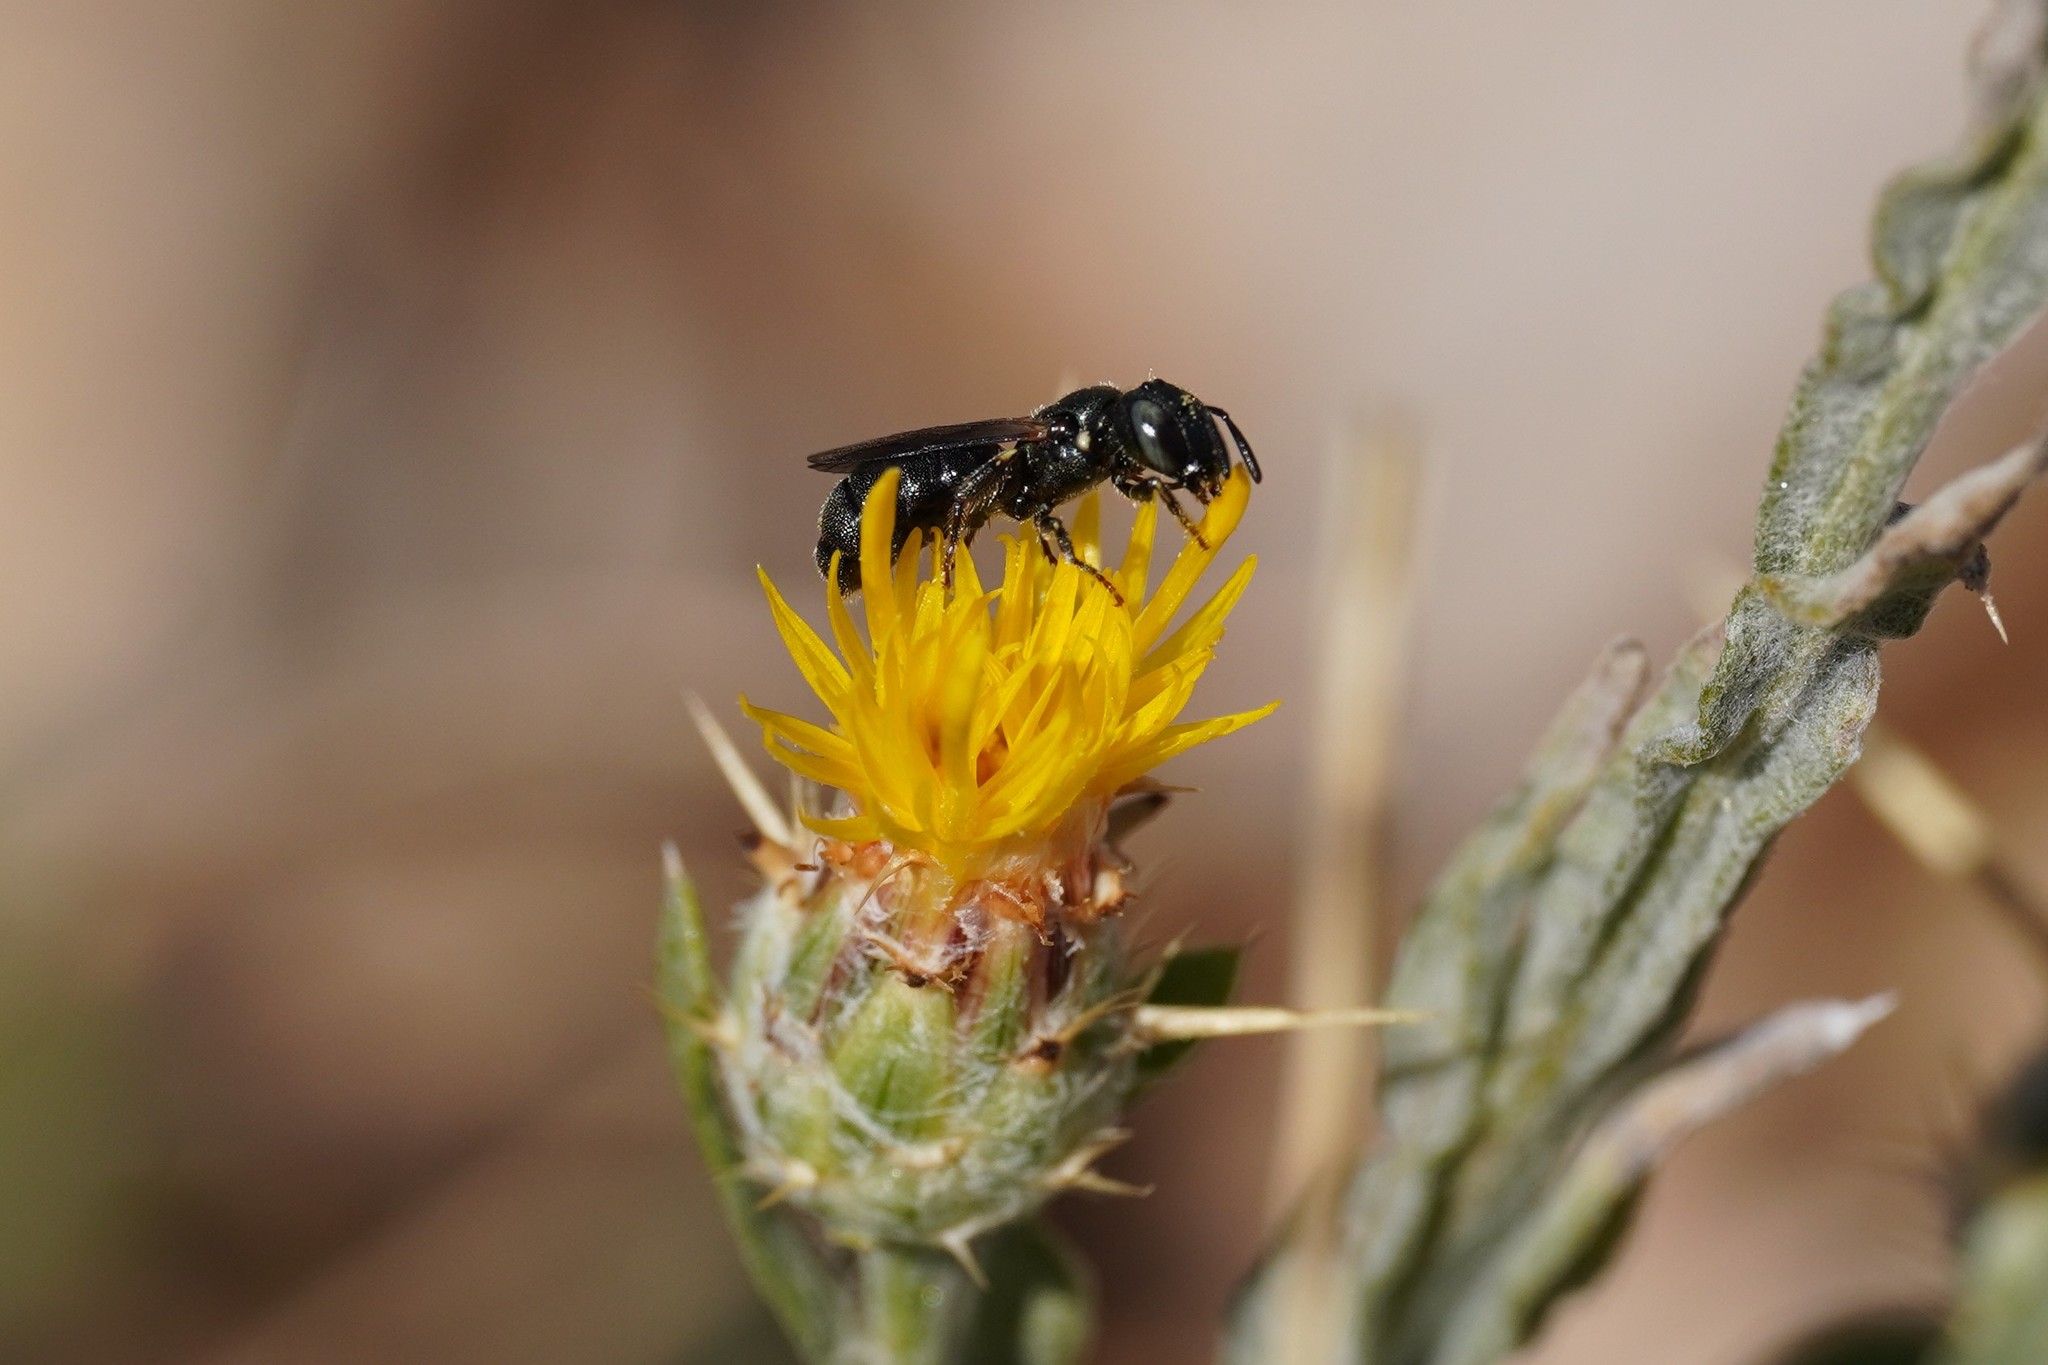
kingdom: Animalia
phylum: Arthropoda
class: Insecta
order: Hymenoptera
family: Apidae
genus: Ceratina
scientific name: Ceratina cucurbitina
